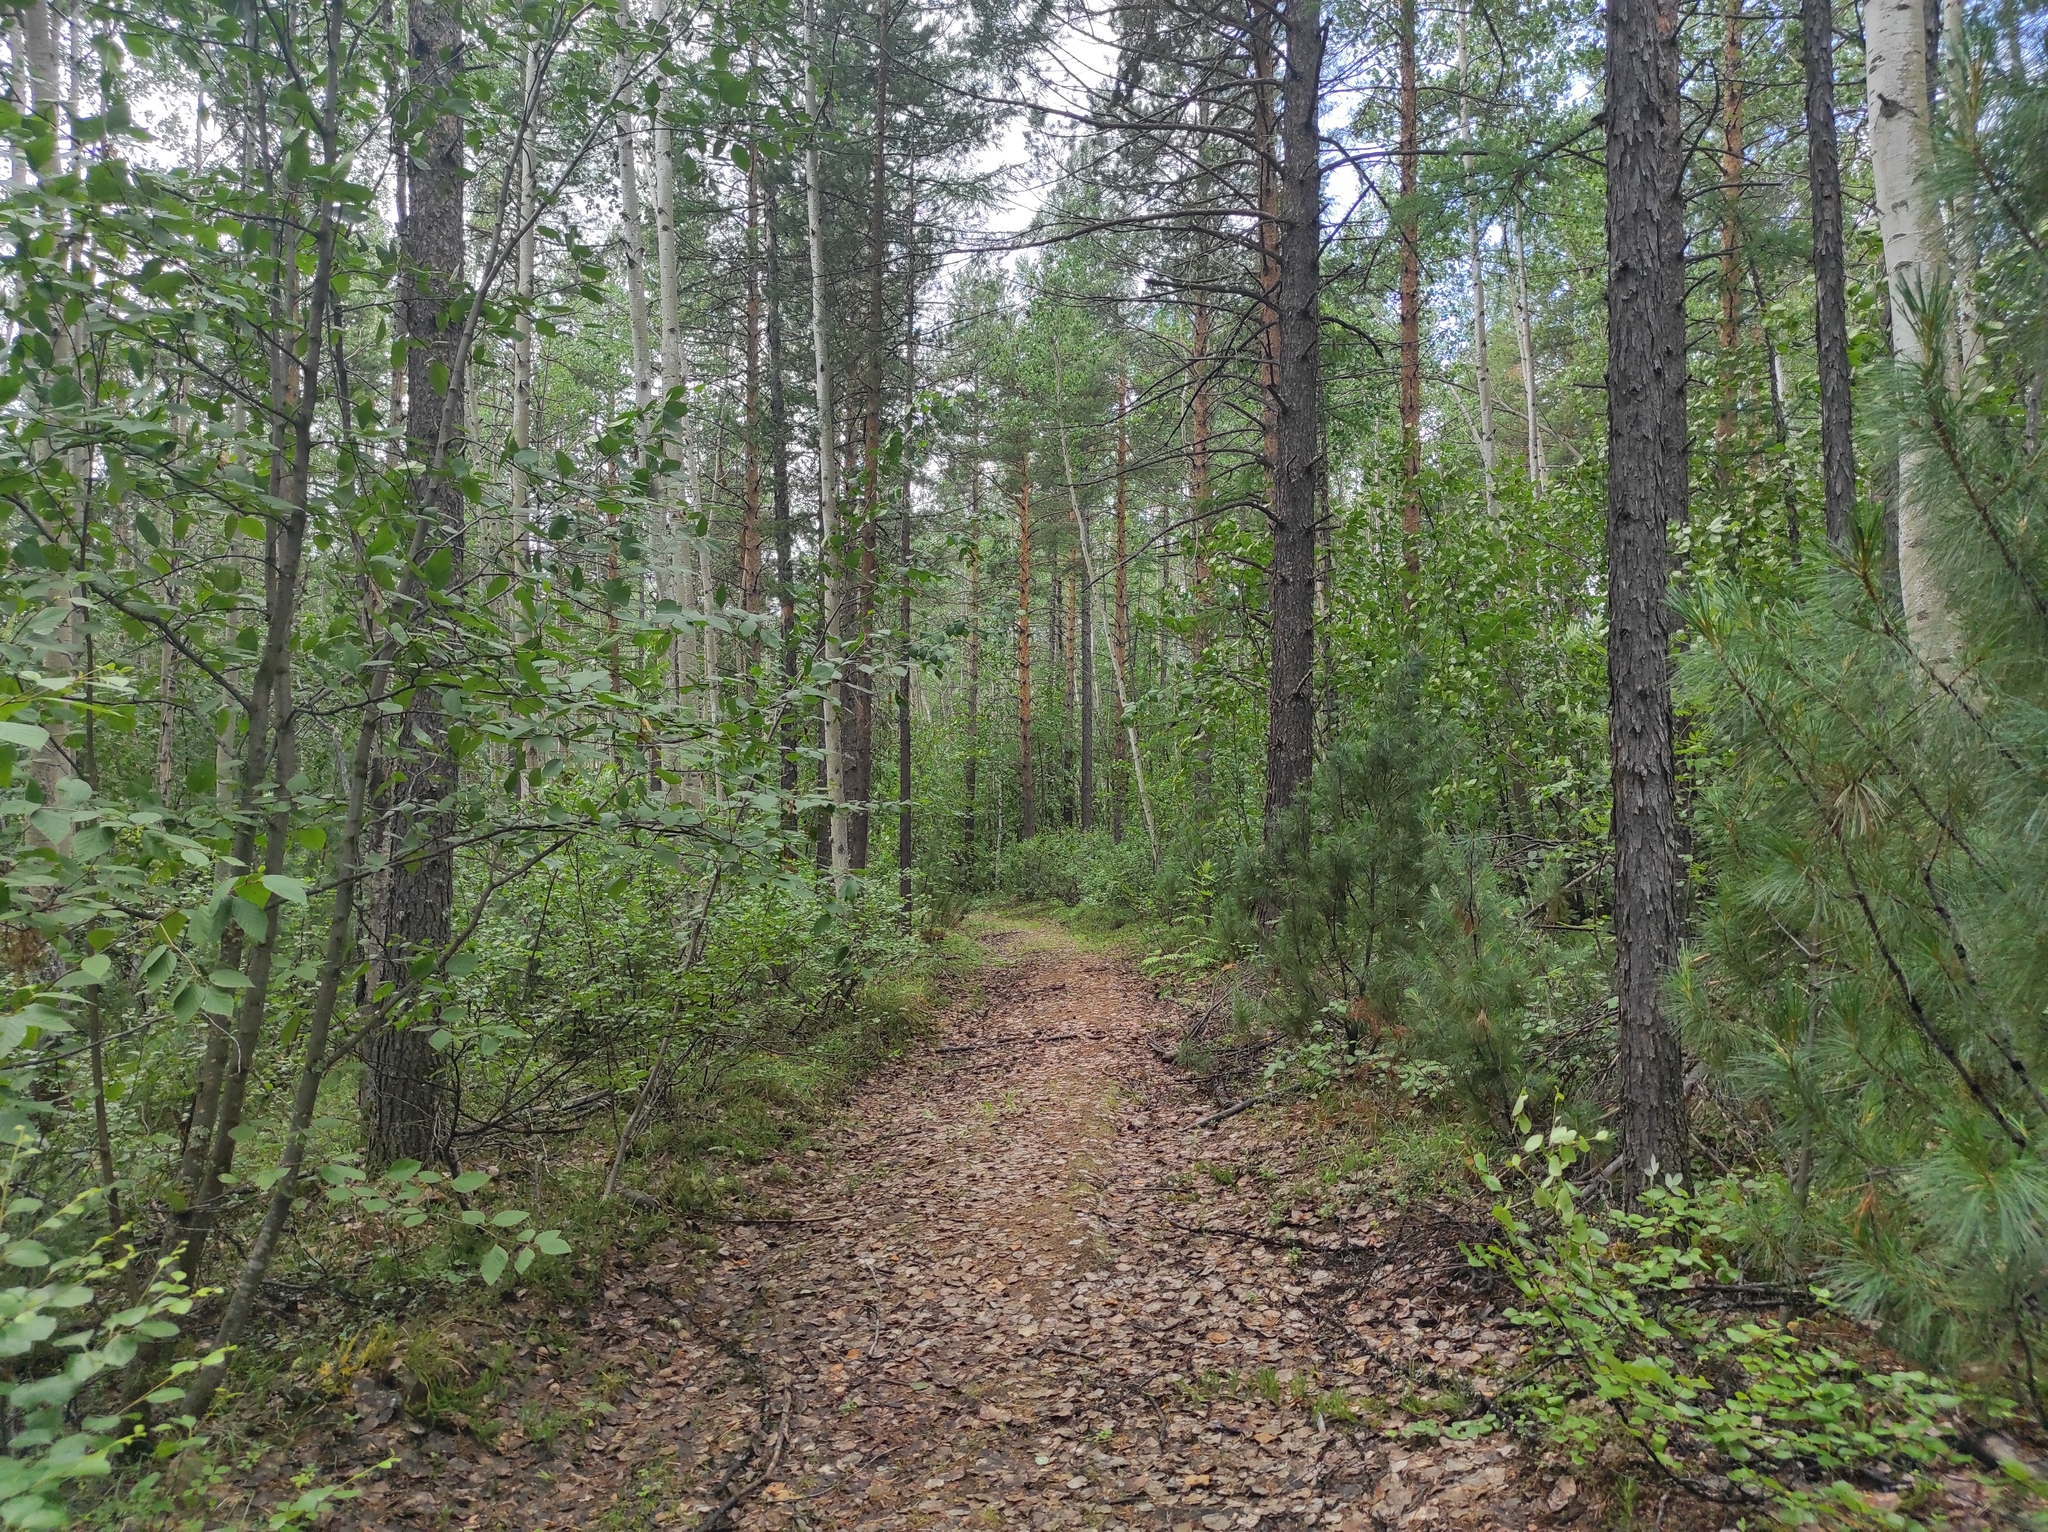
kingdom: Plantae
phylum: Tracheophyta
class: Pinopsida
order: Pinales
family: Pinaceae
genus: Pinus
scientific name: Pinus sylvestris
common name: Scots pine
